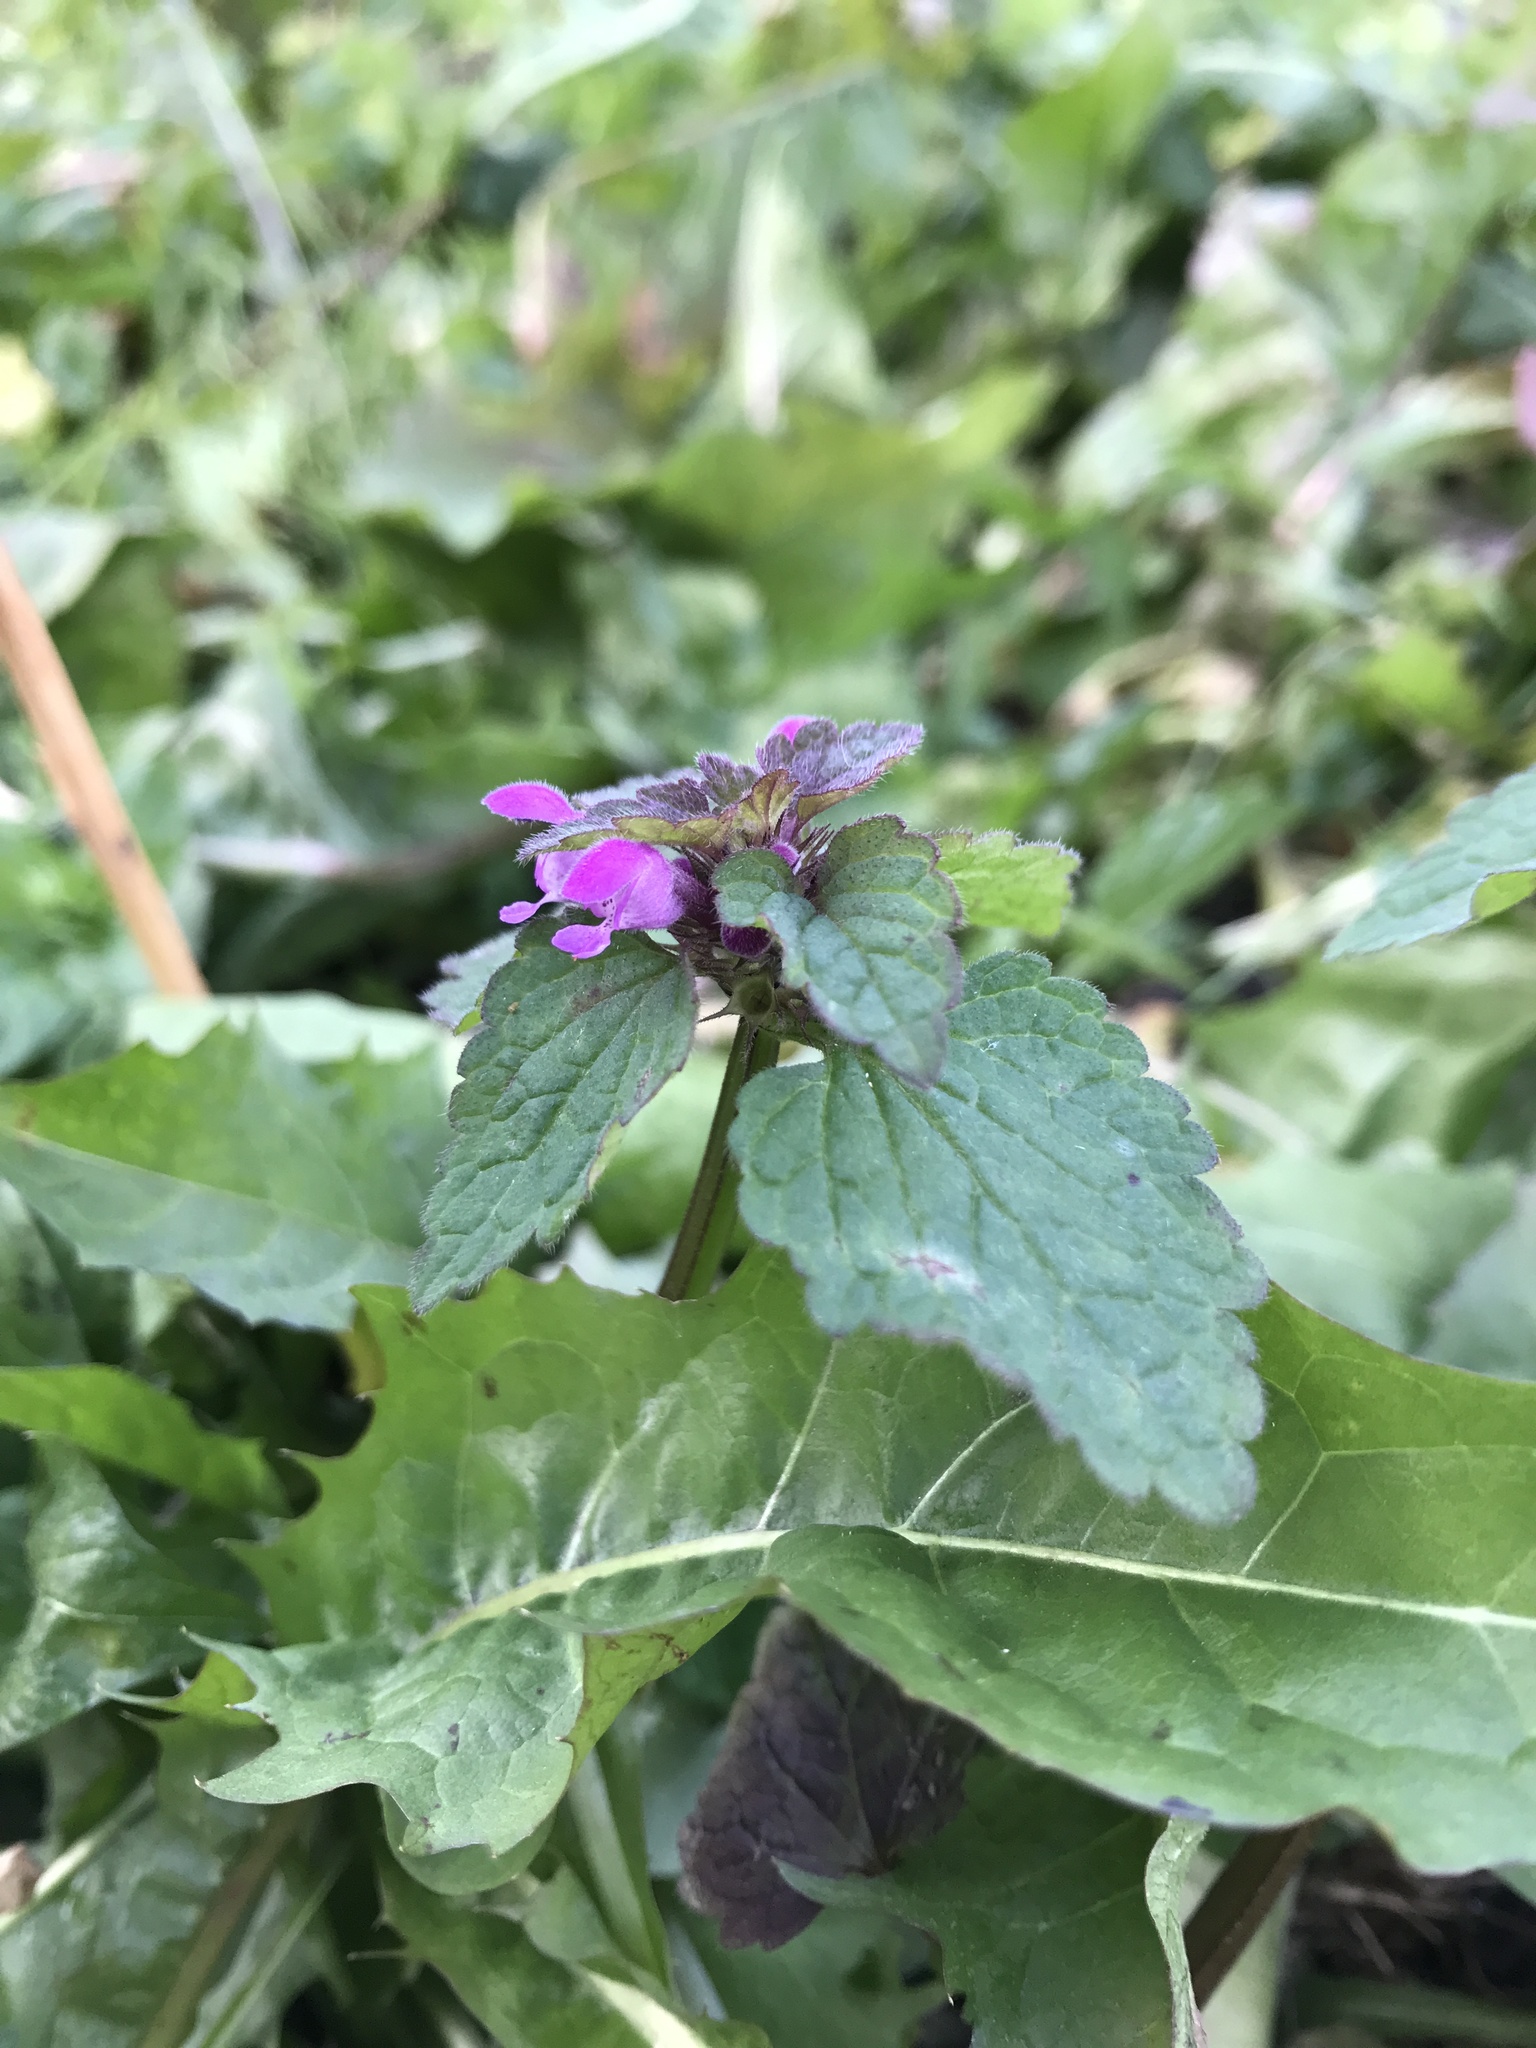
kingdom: Plantae
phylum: Tracheophyta
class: Magnoliopsida
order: Lamiales
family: Lamiaceae
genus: Lamium
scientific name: Lamium purpureum
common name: Red dead-nettle
